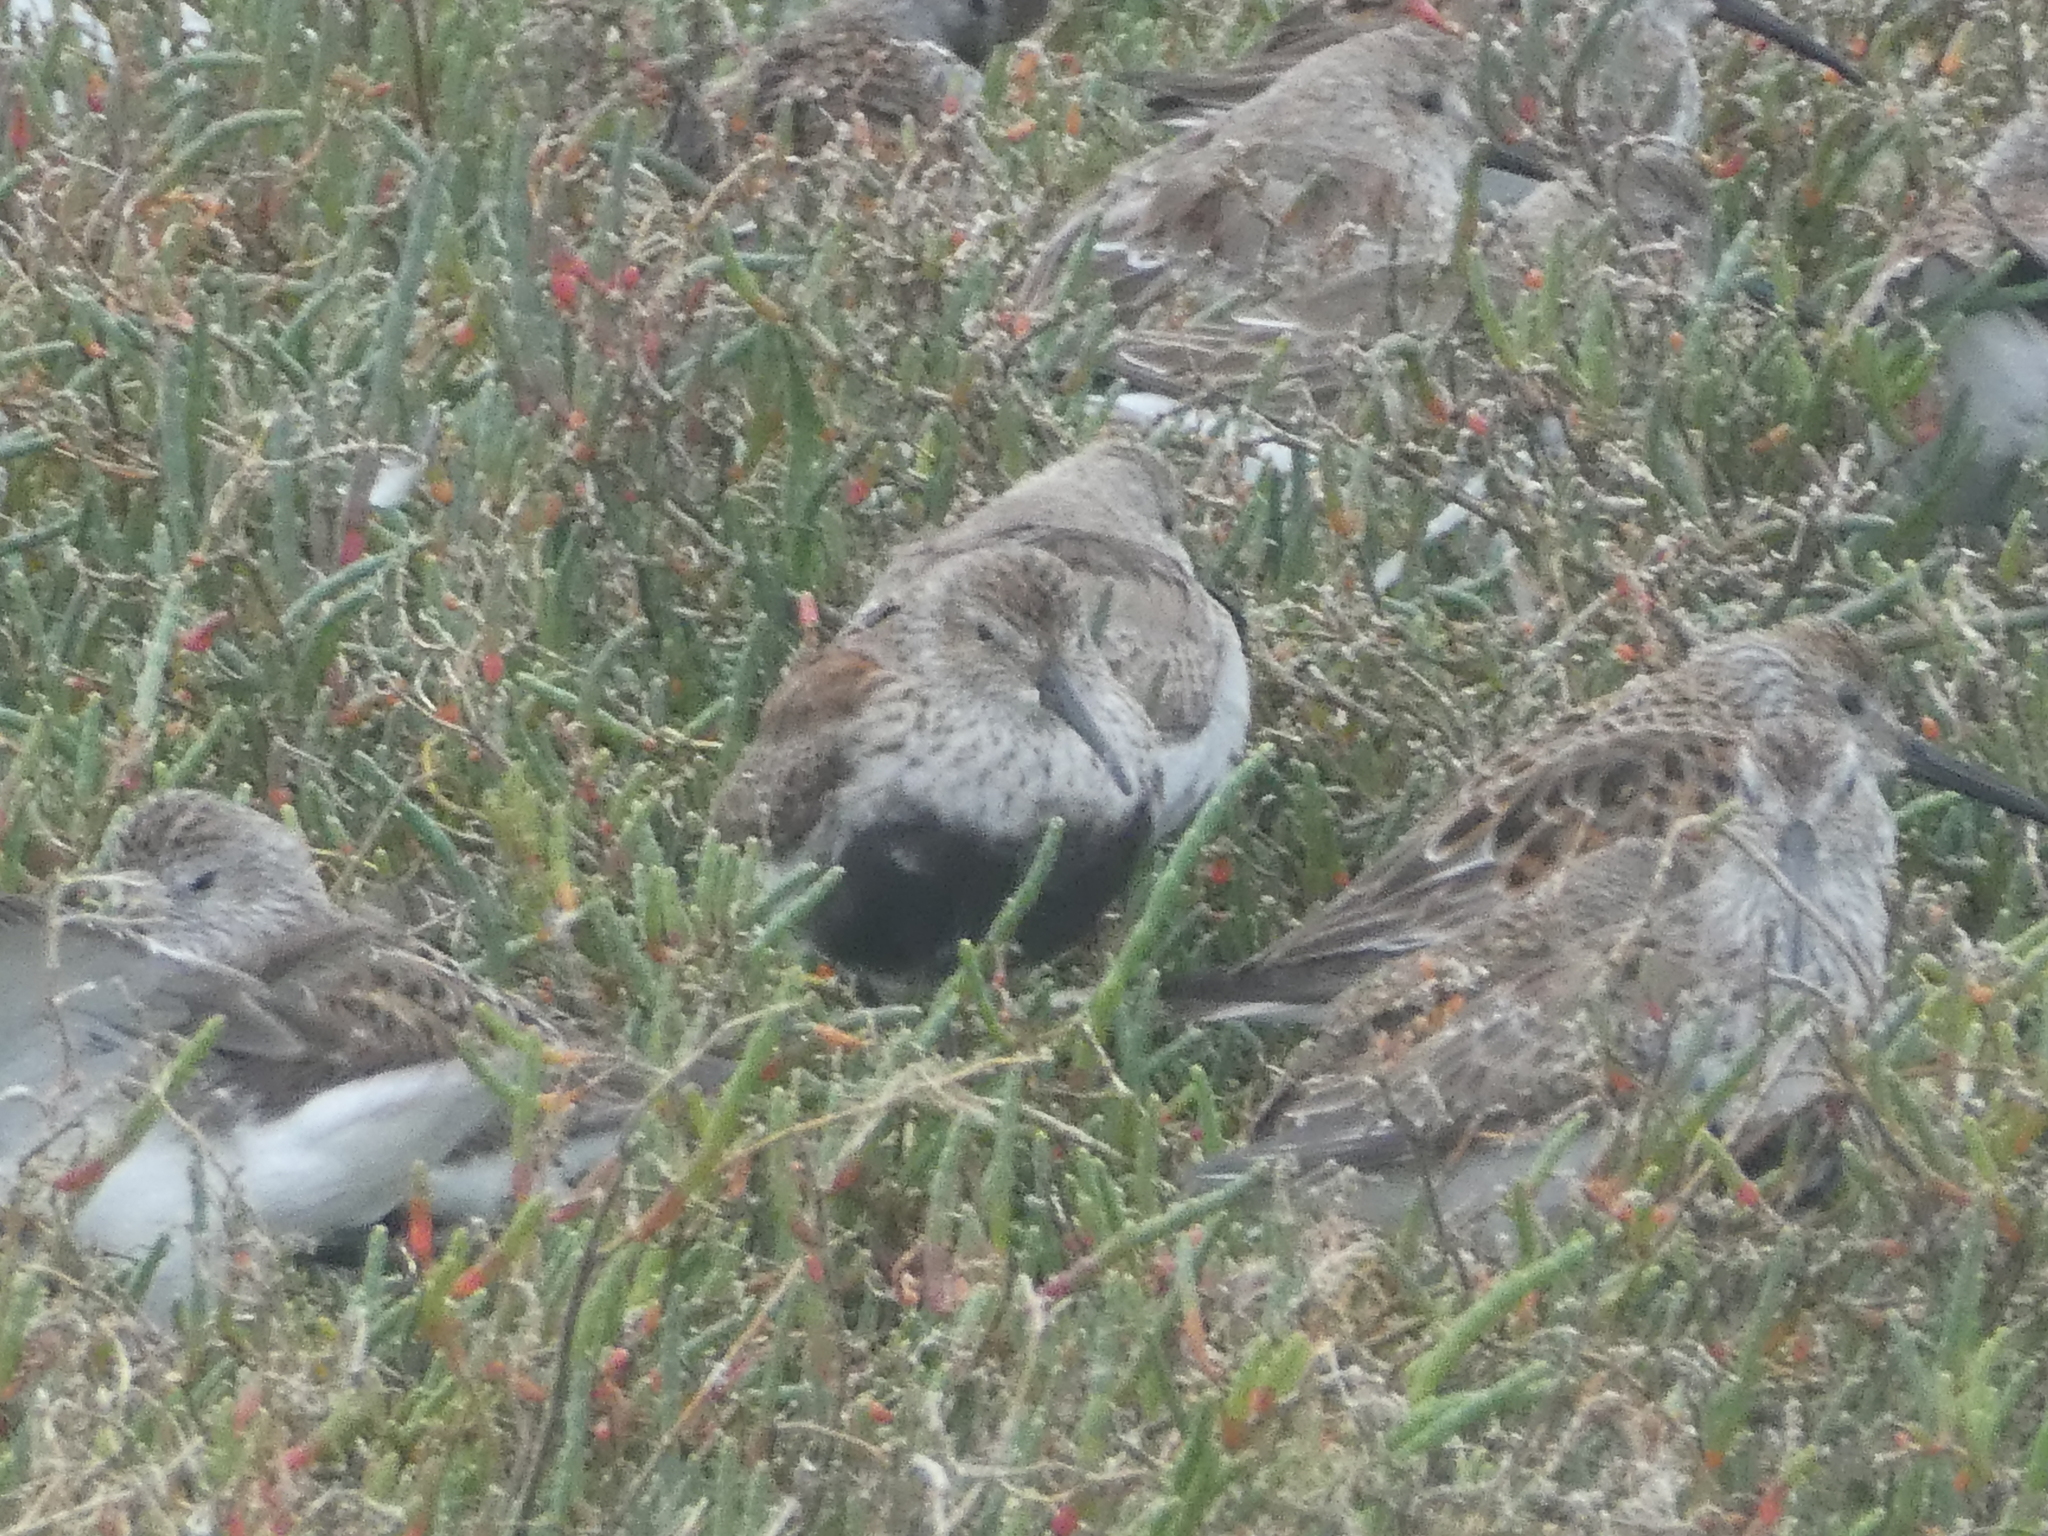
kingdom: Animalia
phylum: Chordata
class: Aves
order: Charadriiformes
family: Scolopacidae
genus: Calidris
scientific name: Calidris alpina
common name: Dunlin
